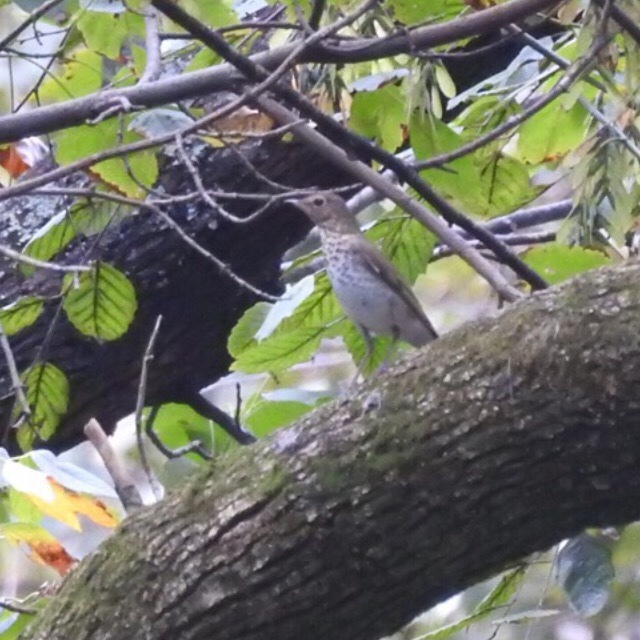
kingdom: Animalia
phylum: Chordata
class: Aves
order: Passeriformes
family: Turdidae
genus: Catharus
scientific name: Catharus ustulatus
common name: Swainson's thrush
